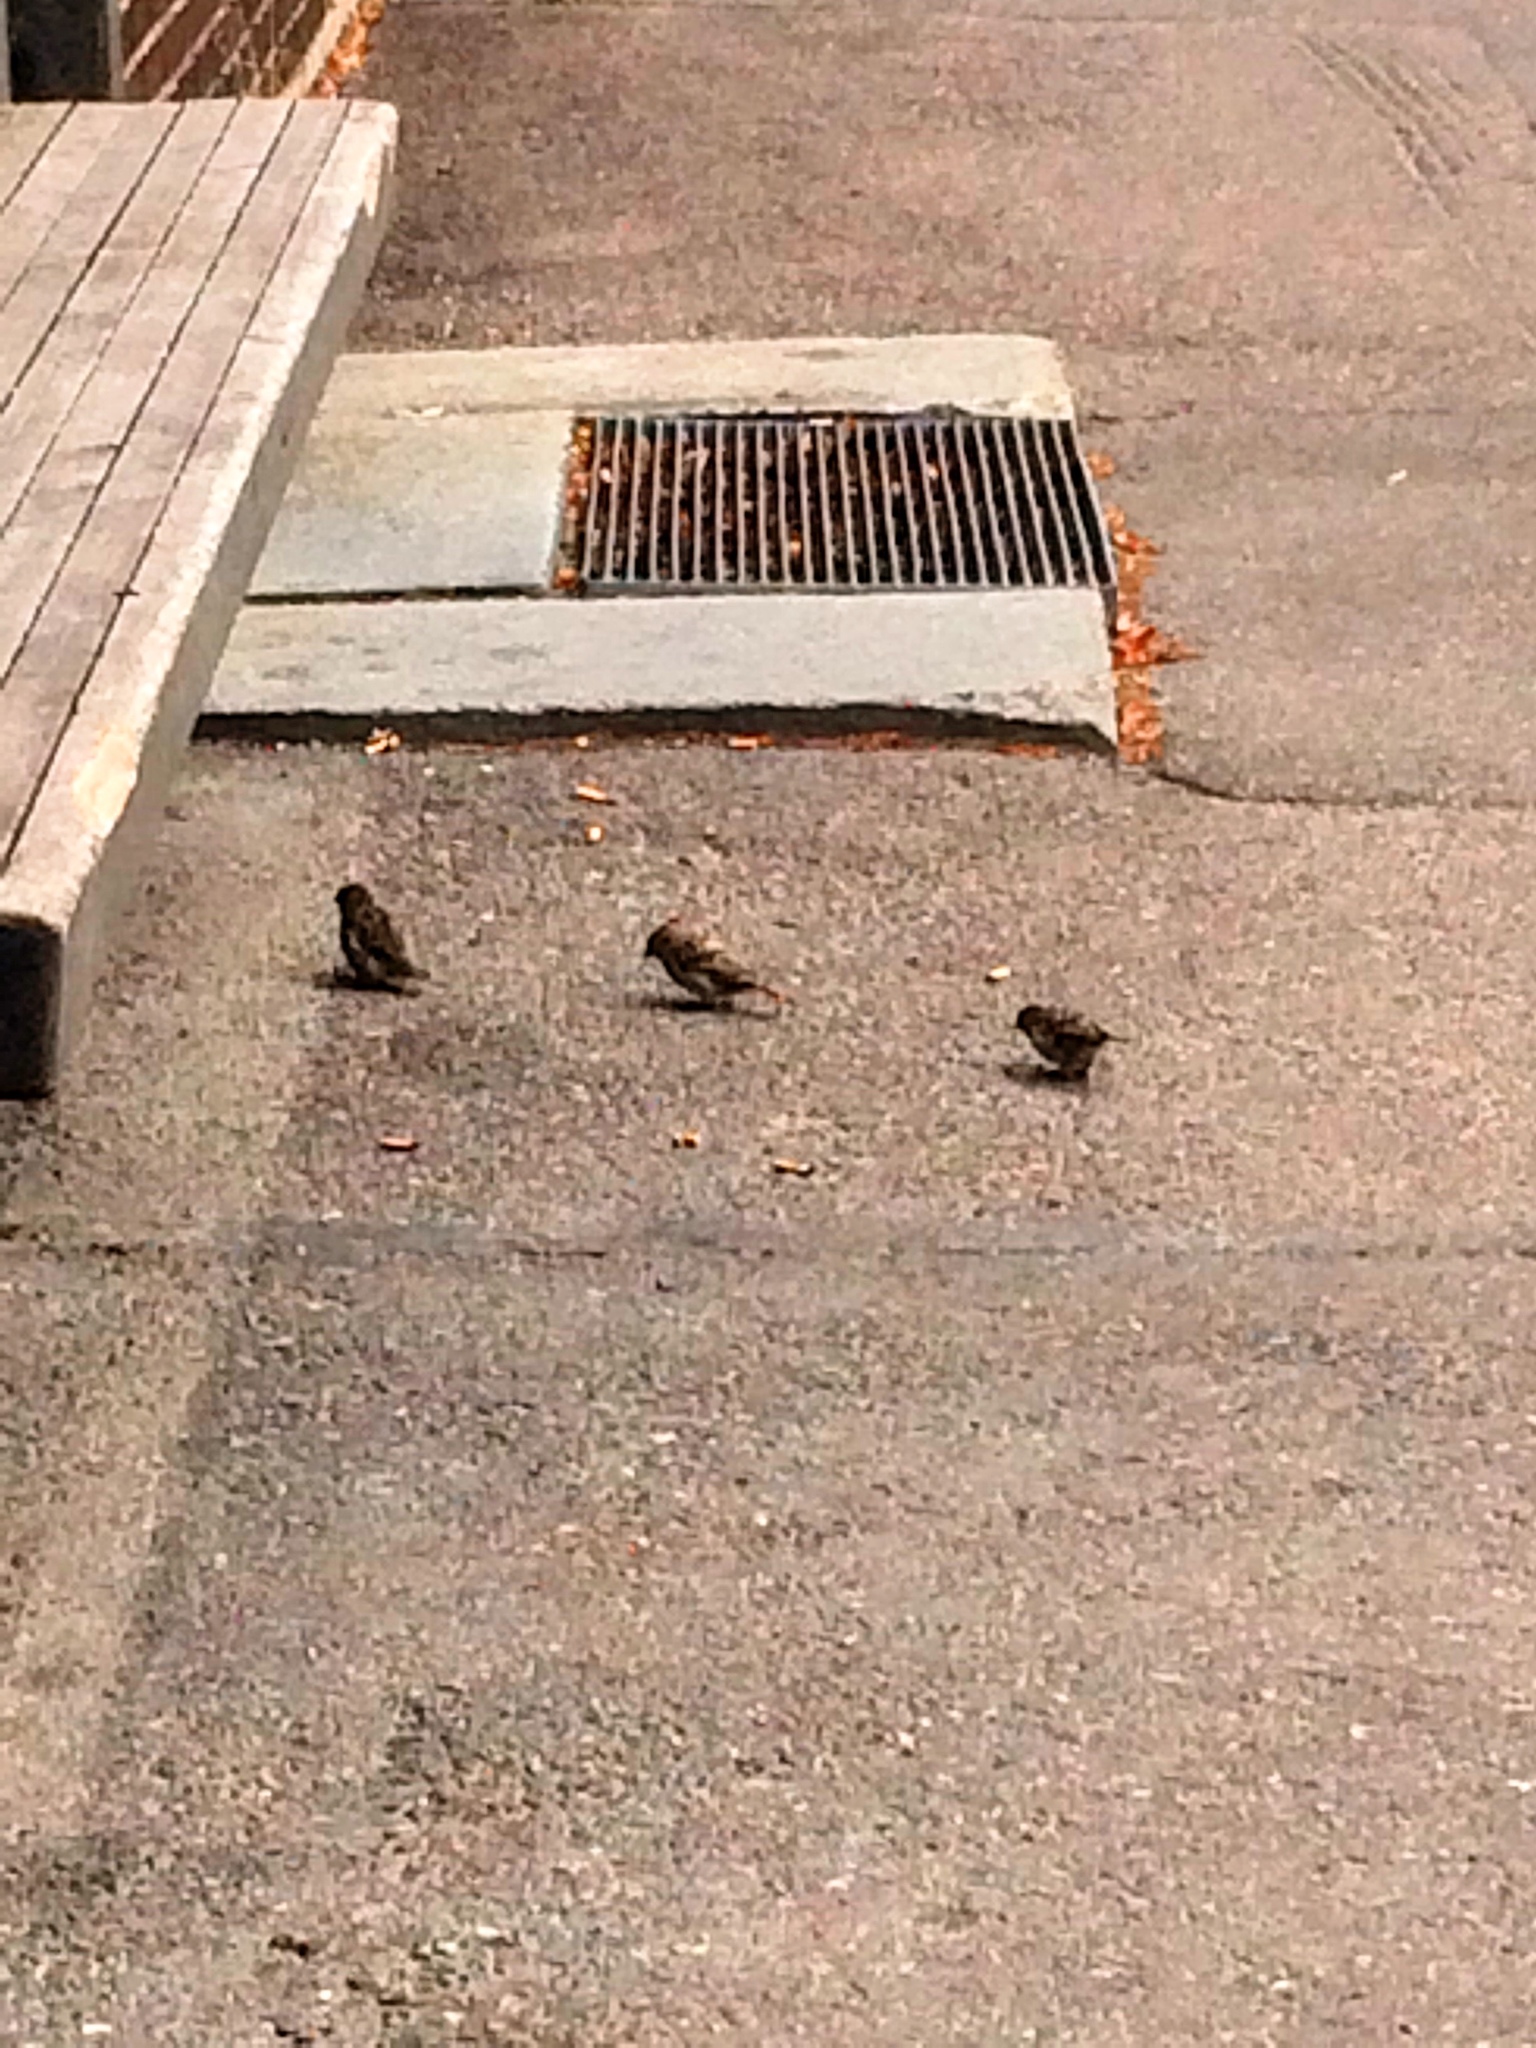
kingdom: Animalia
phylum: Chordata
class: Aves
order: Passeriformes
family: Passeridae
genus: Passer
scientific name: Passer domesticus
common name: House sparrow
